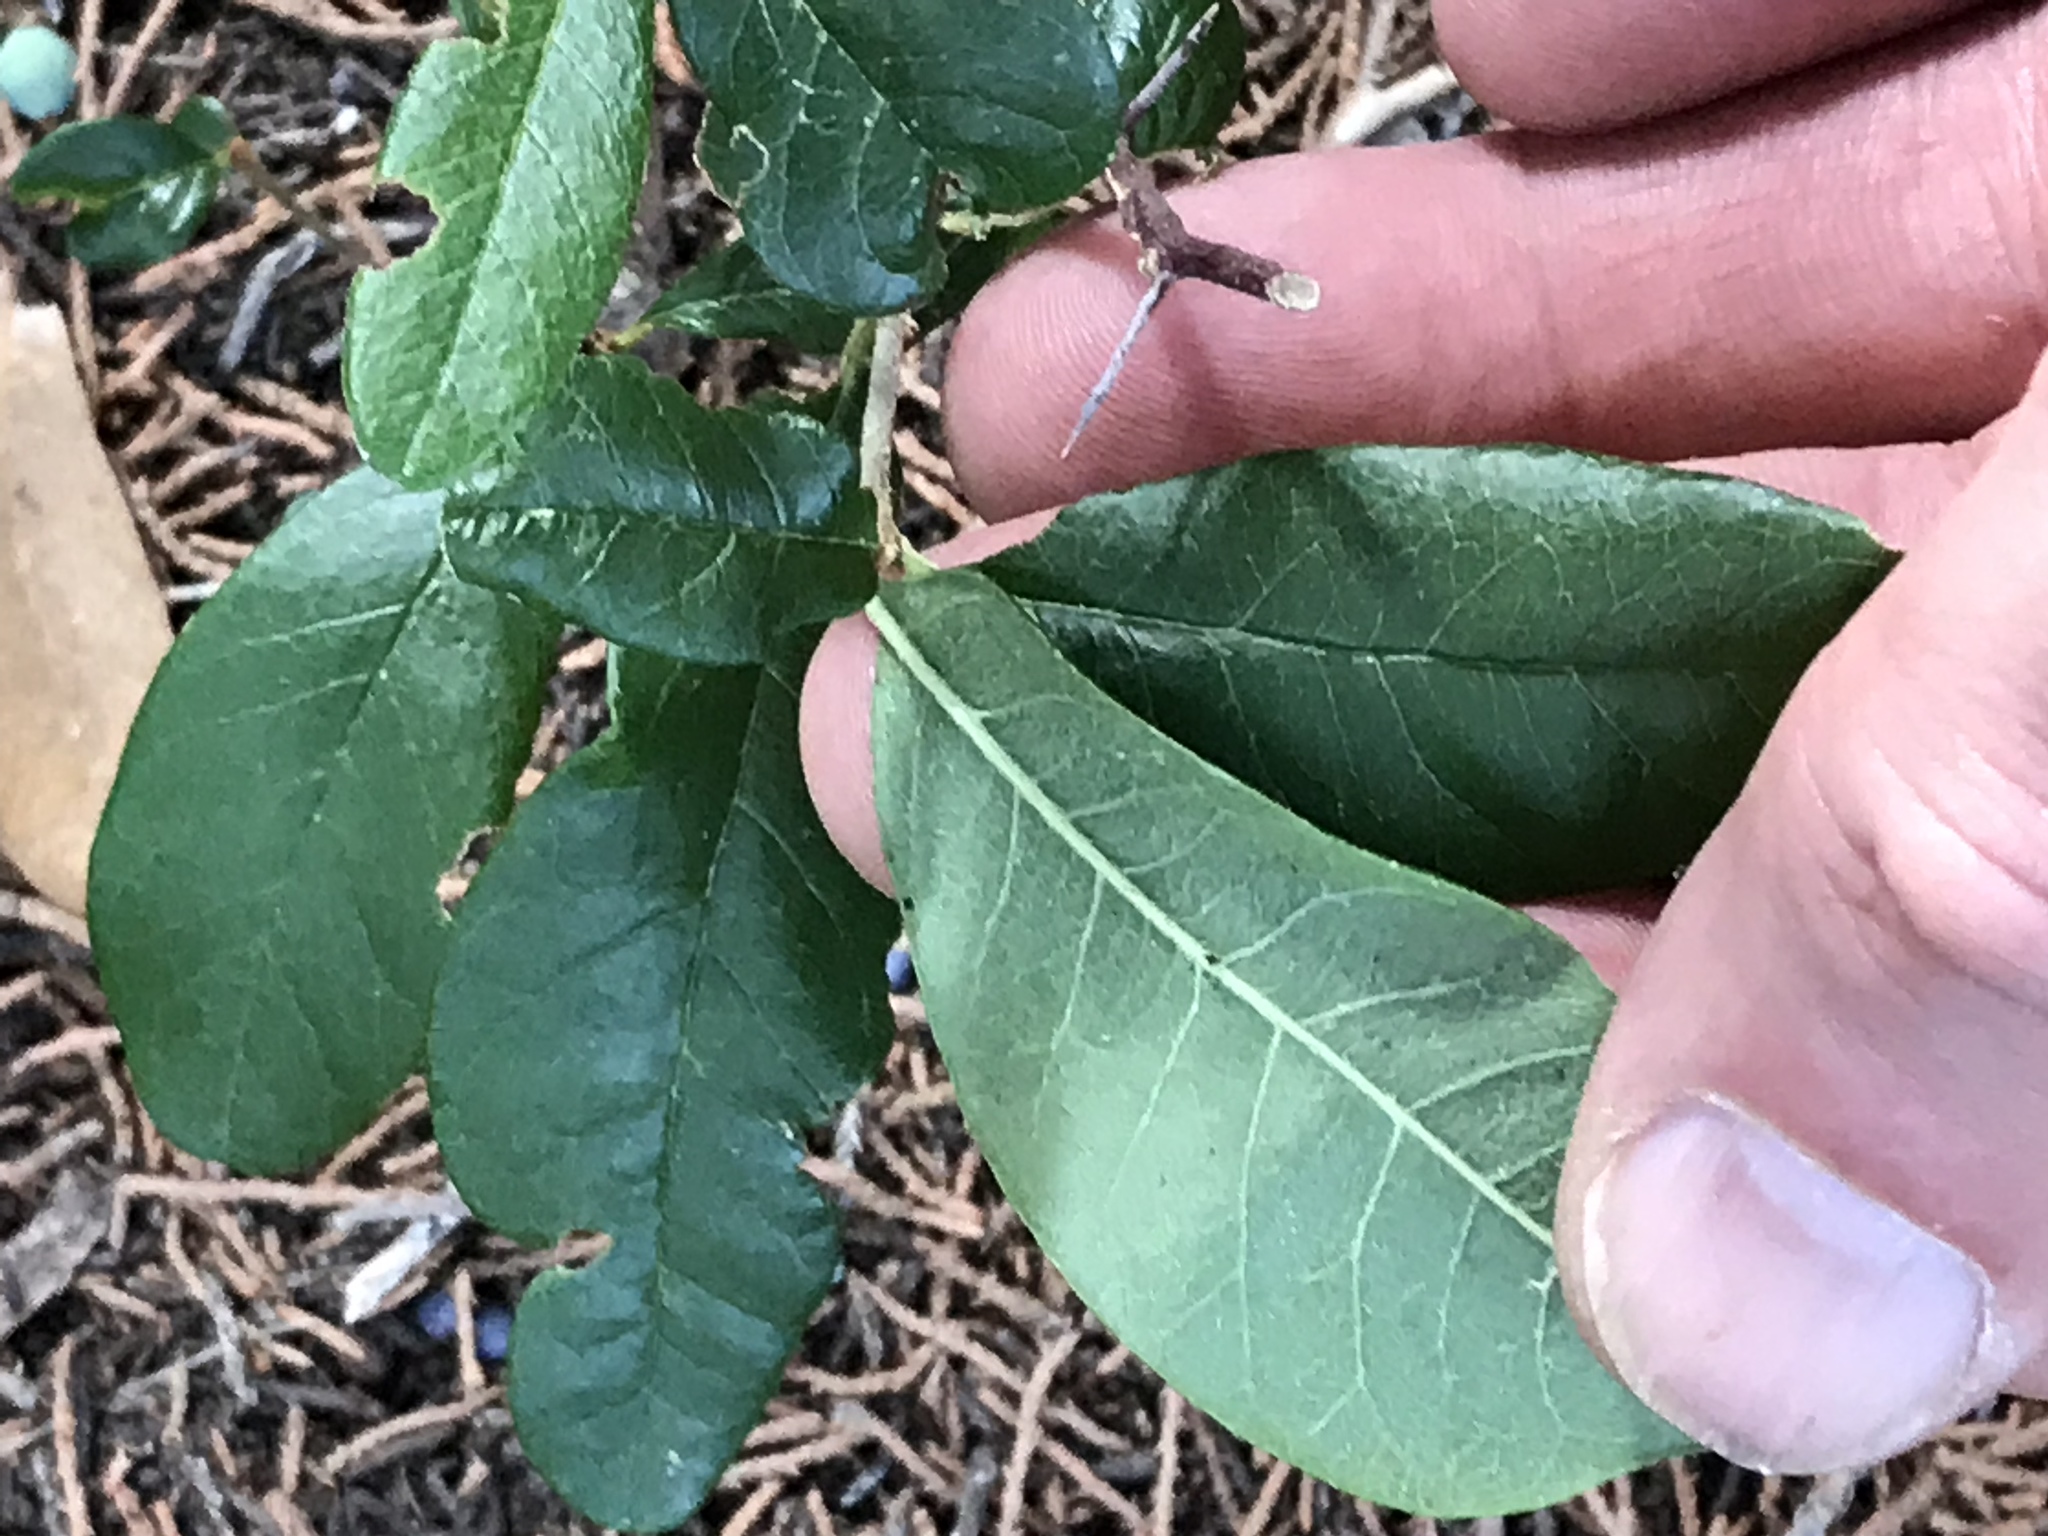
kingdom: Plantae
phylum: Tracheophyta
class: Magnoliopsida
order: Ericales
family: Sapotaceae
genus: Sideroxylon
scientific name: Sideroxylon lanuginosum
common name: Chittamwood
